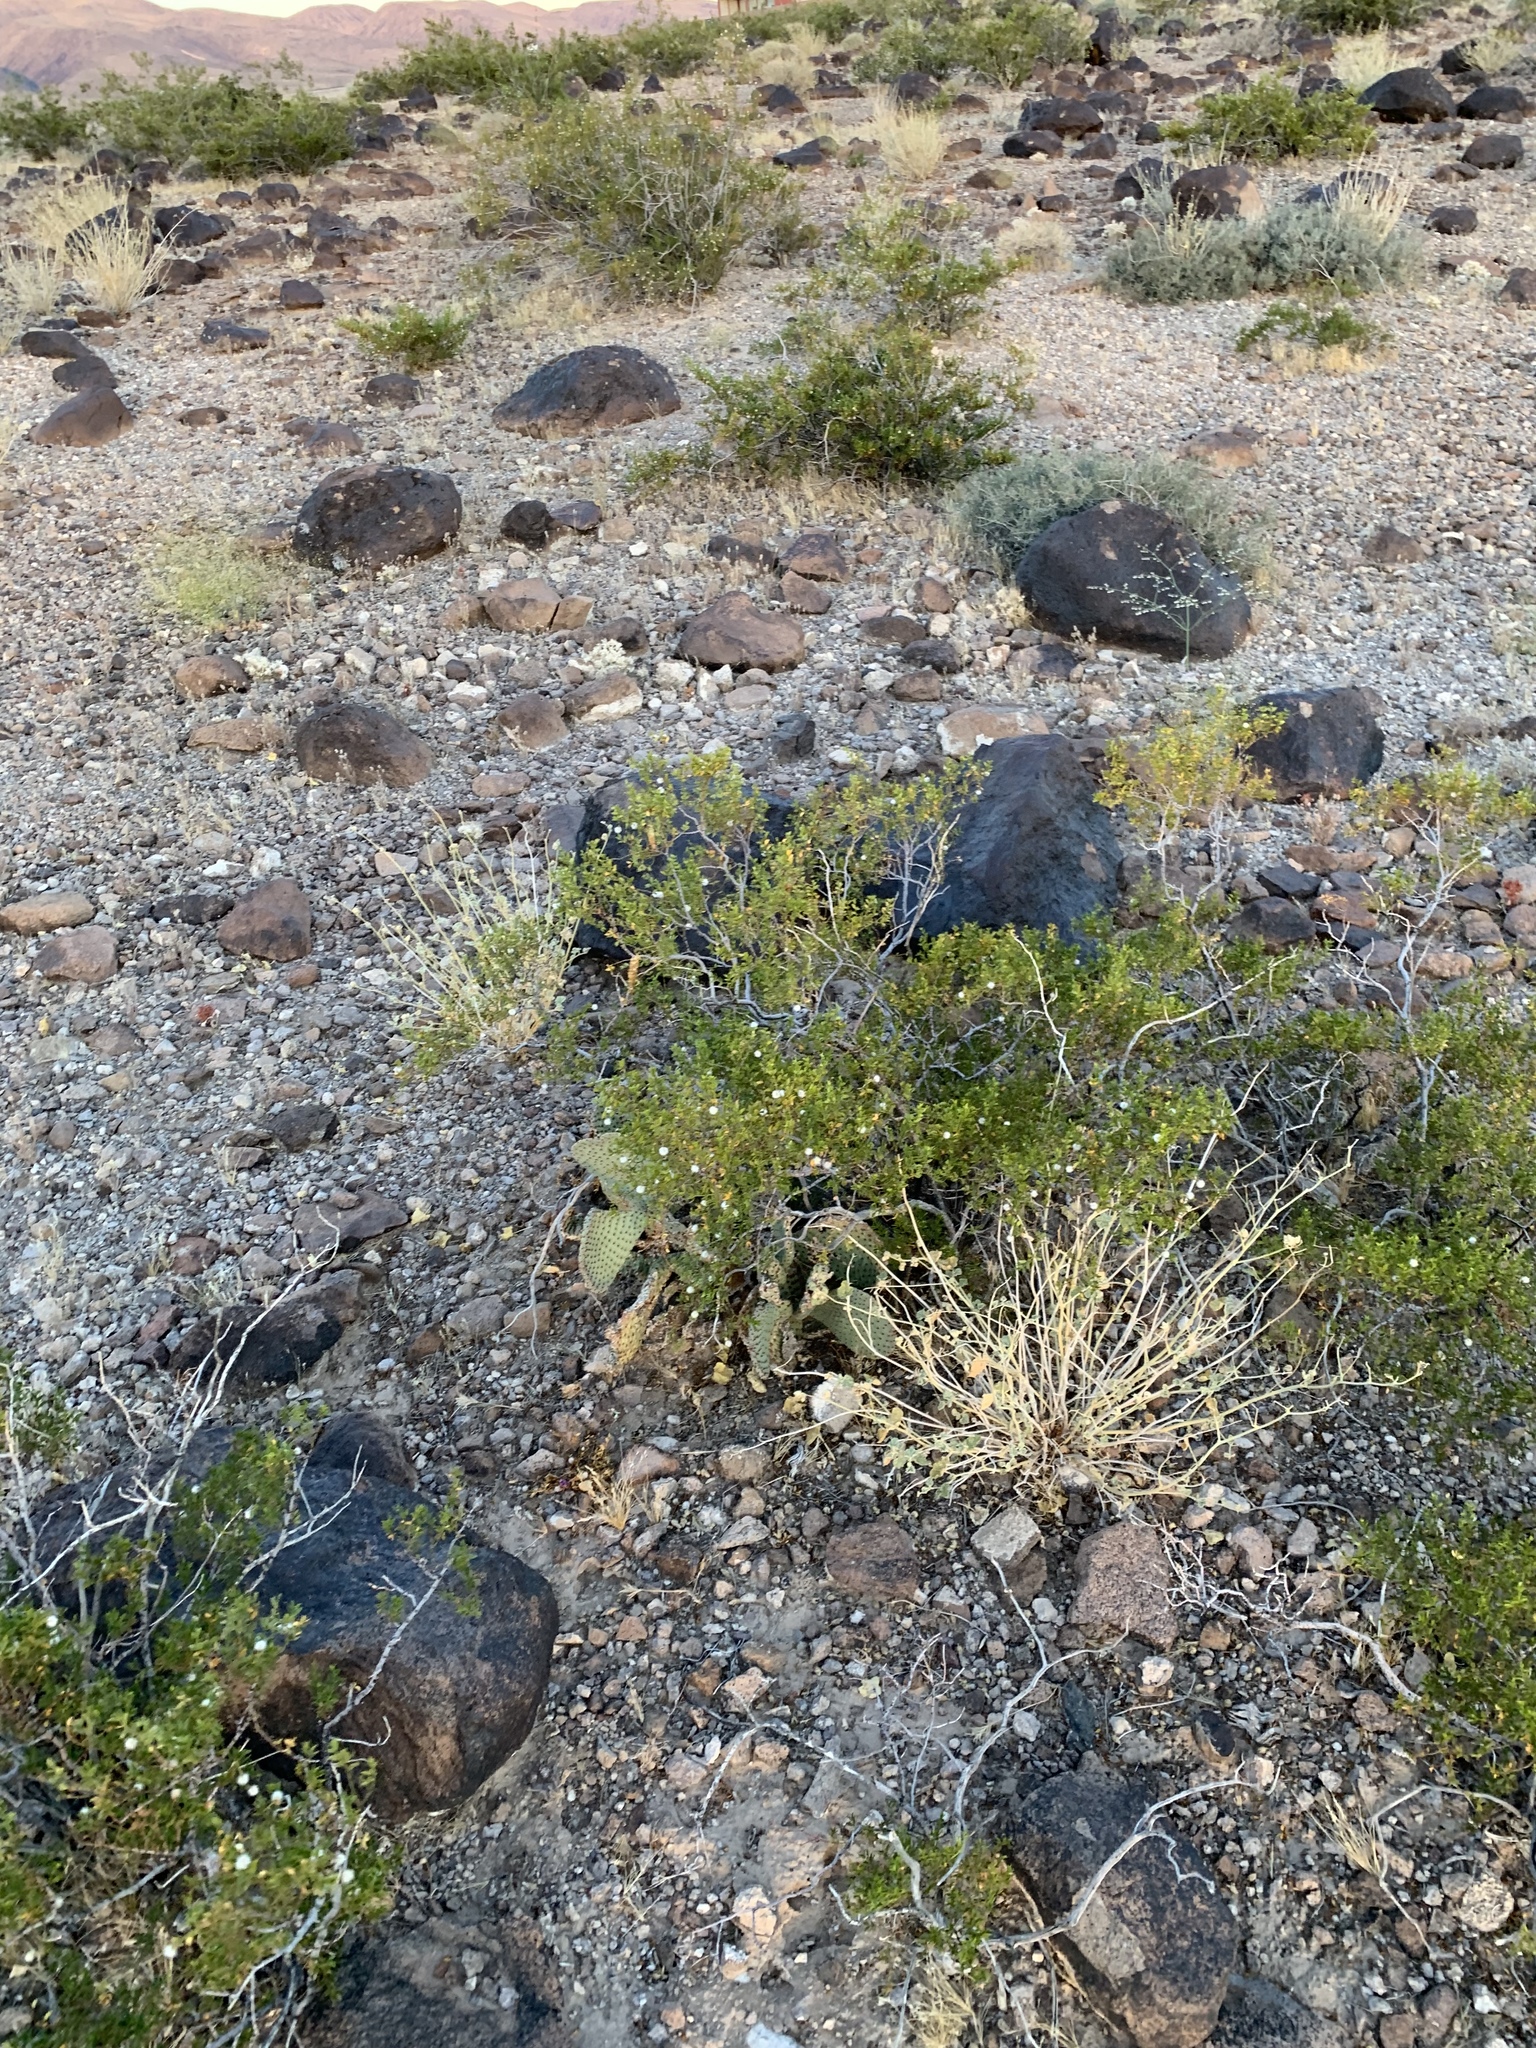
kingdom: Plantae
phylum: Tracheophyta
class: Magnoliopsida
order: Zygophyllales
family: Zygophyllaceae
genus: Larrea
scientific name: Larrea tridentata
